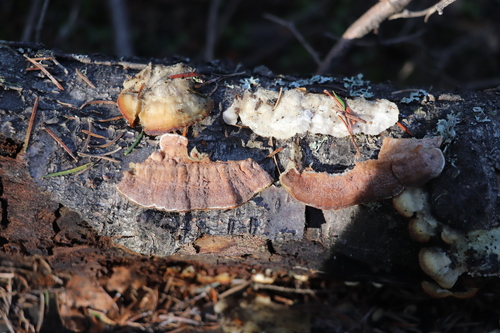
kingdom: Fungi
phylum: Basidiomycota
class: Agaricomycetes
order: Polyporales
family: Irpicaceae
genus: Vitreoporus
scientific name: Vitreoporus dichrous
